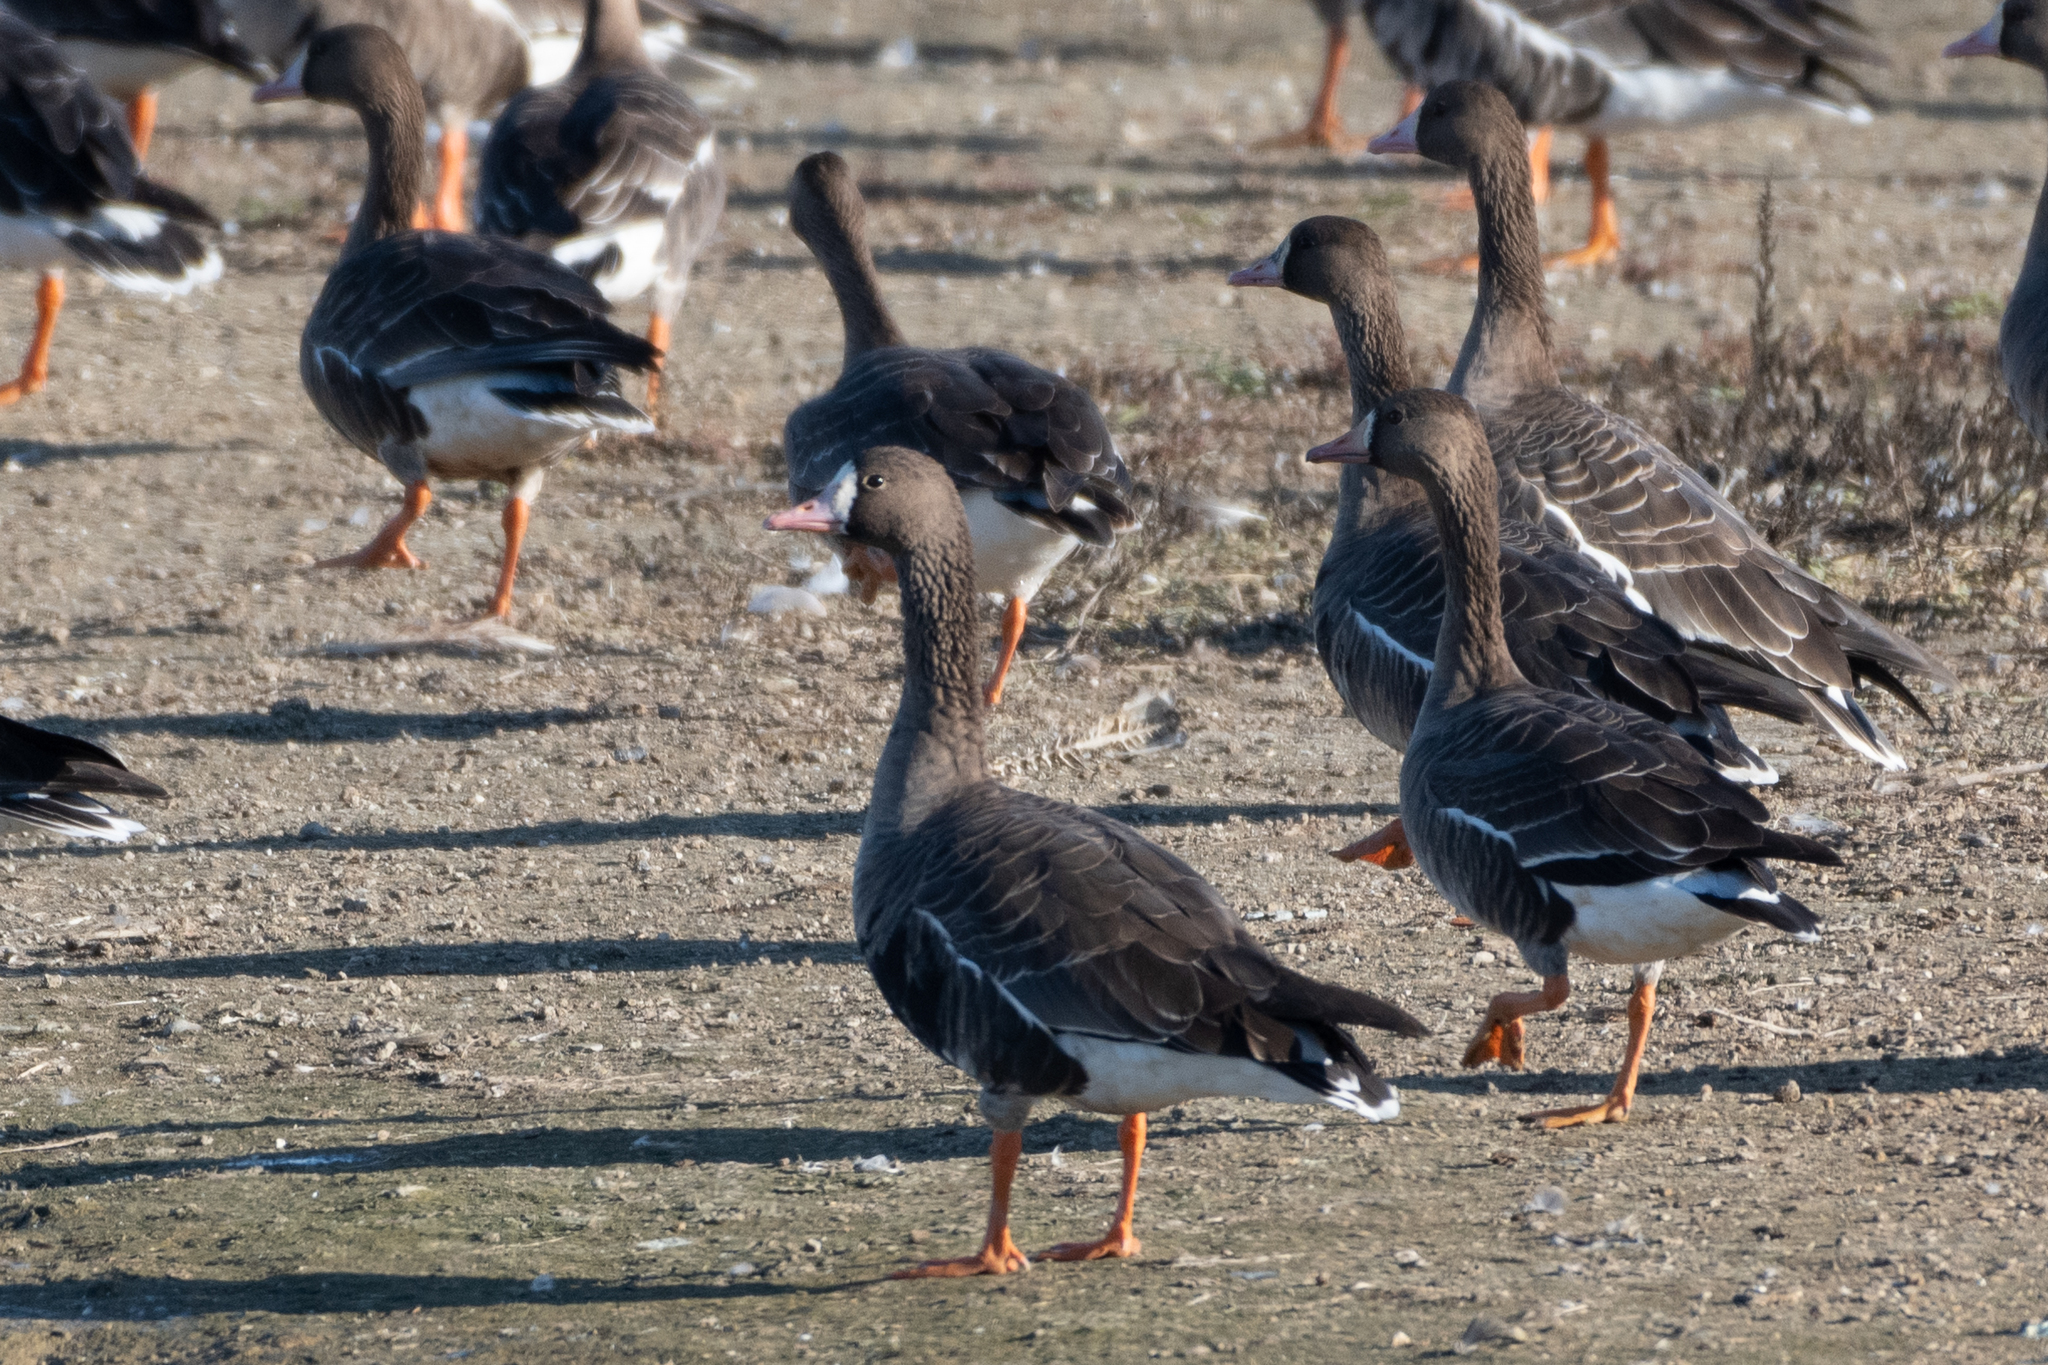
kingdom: Animalia
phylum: Chordata
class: Aves
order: Anseriformes
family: Anatidae
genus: Anser
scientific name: Anser albifrons
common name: Greater white-fronted goose
